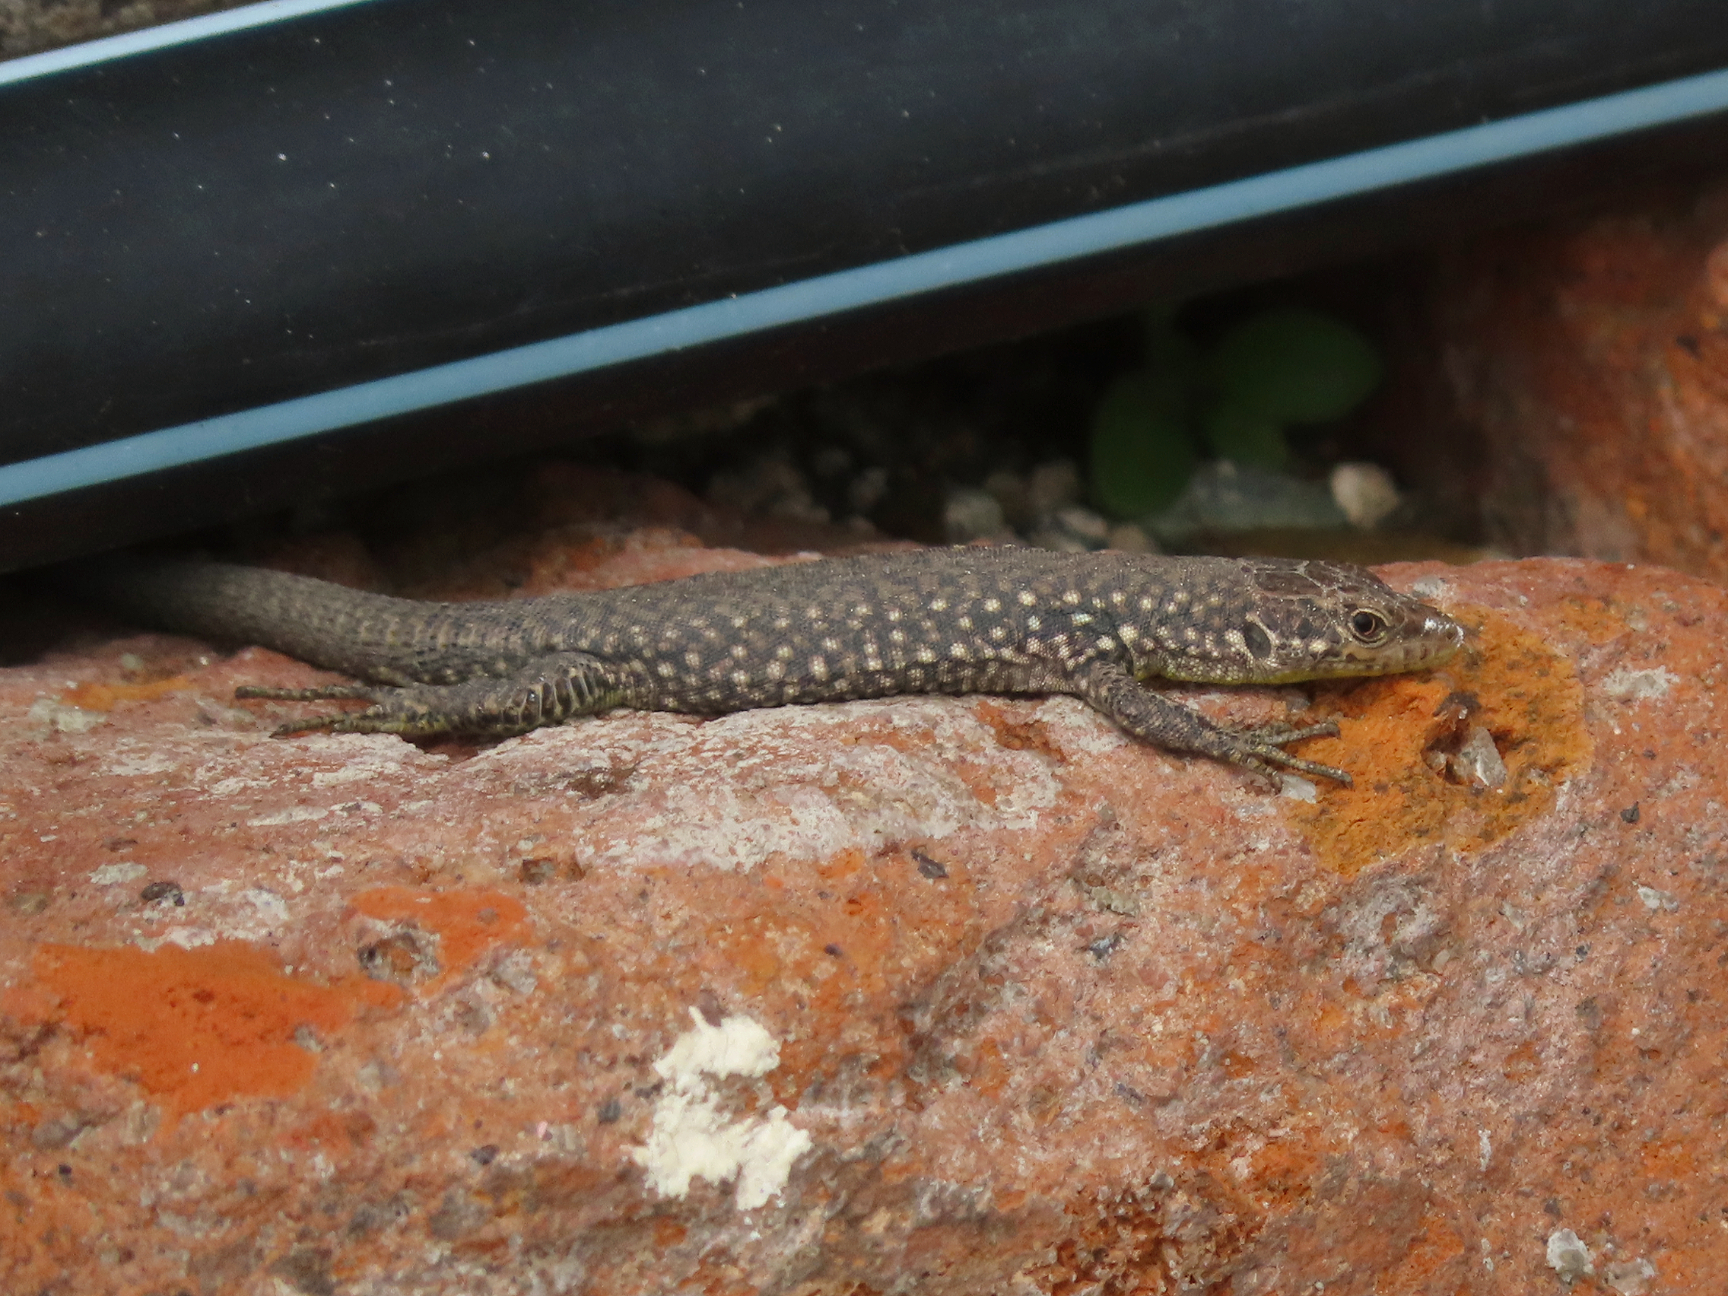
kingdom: Animalia
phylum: Chordata
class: Squamata
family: Lacertidae
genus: Darevskia
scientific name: Darevskia
